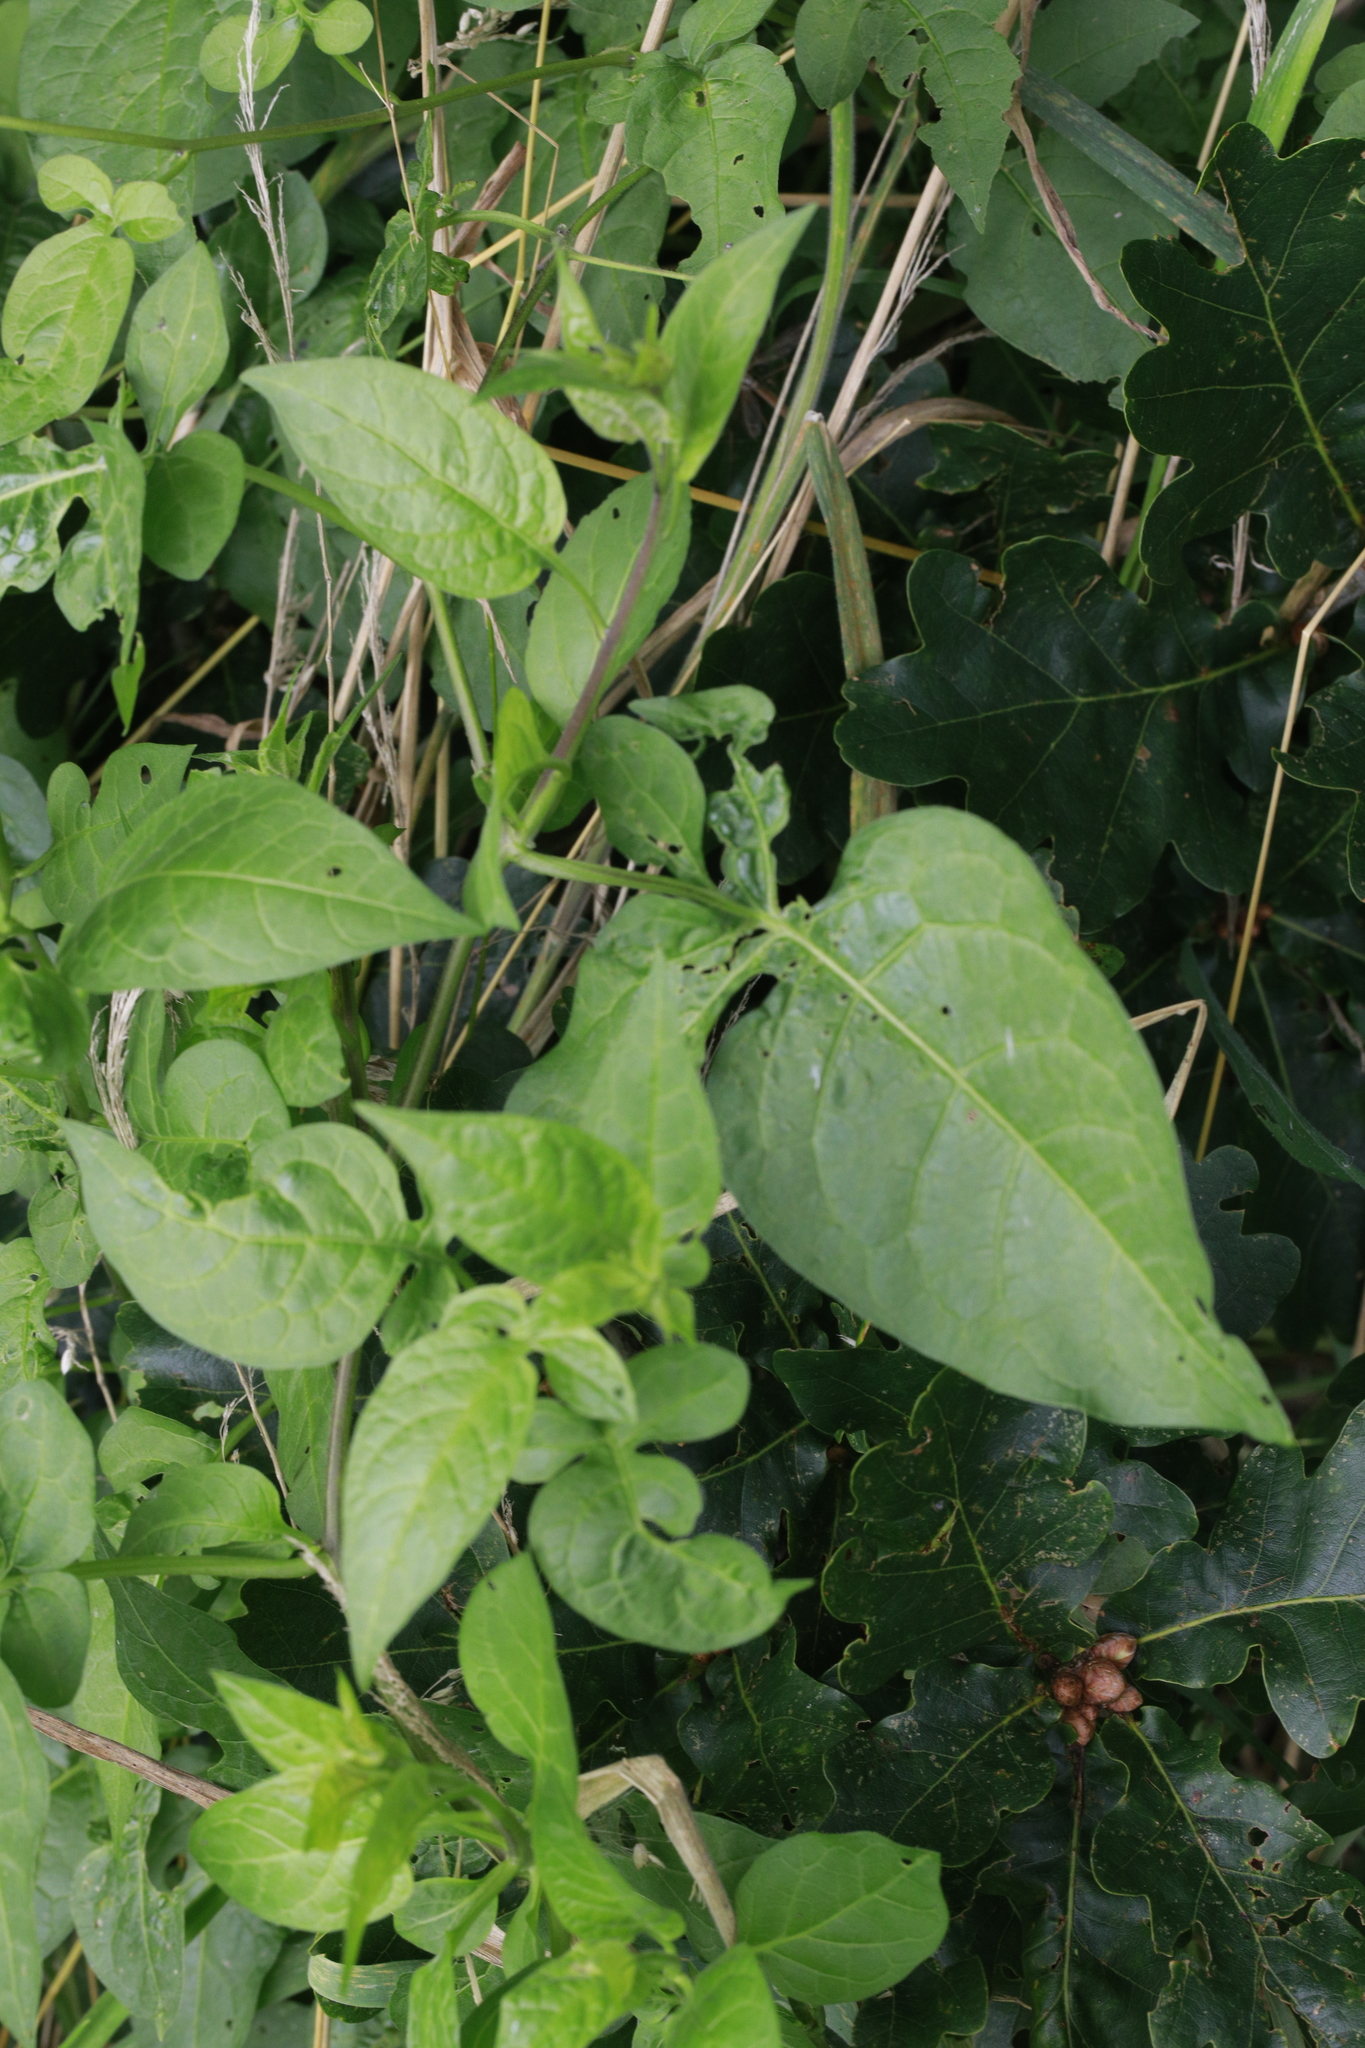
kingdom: Plantae
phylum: Tracheophyta
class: Magnoliopsida
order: Solanales
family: Solanaceae
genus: Solanum
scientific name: Solanum dulcamara
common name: Climbing nightshade
